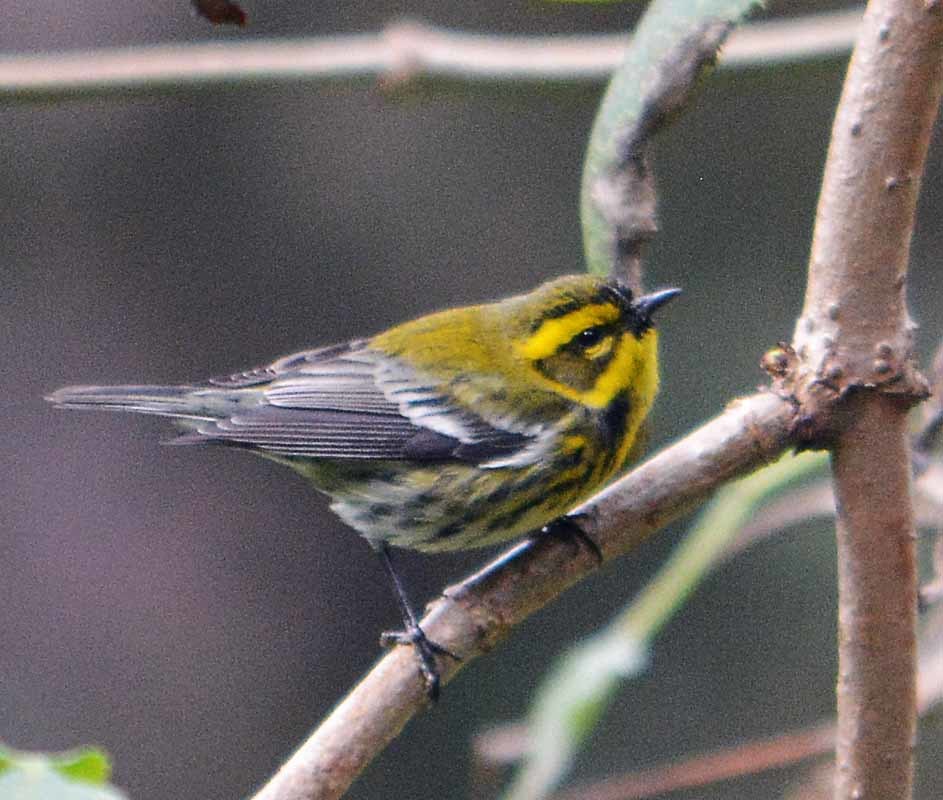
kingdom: Animalia
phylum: Chordata
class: Aves
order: Passeriformes
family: Parulidae
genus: Setophaga
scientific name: Setophaga townsendi
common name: Townsend's warbler
